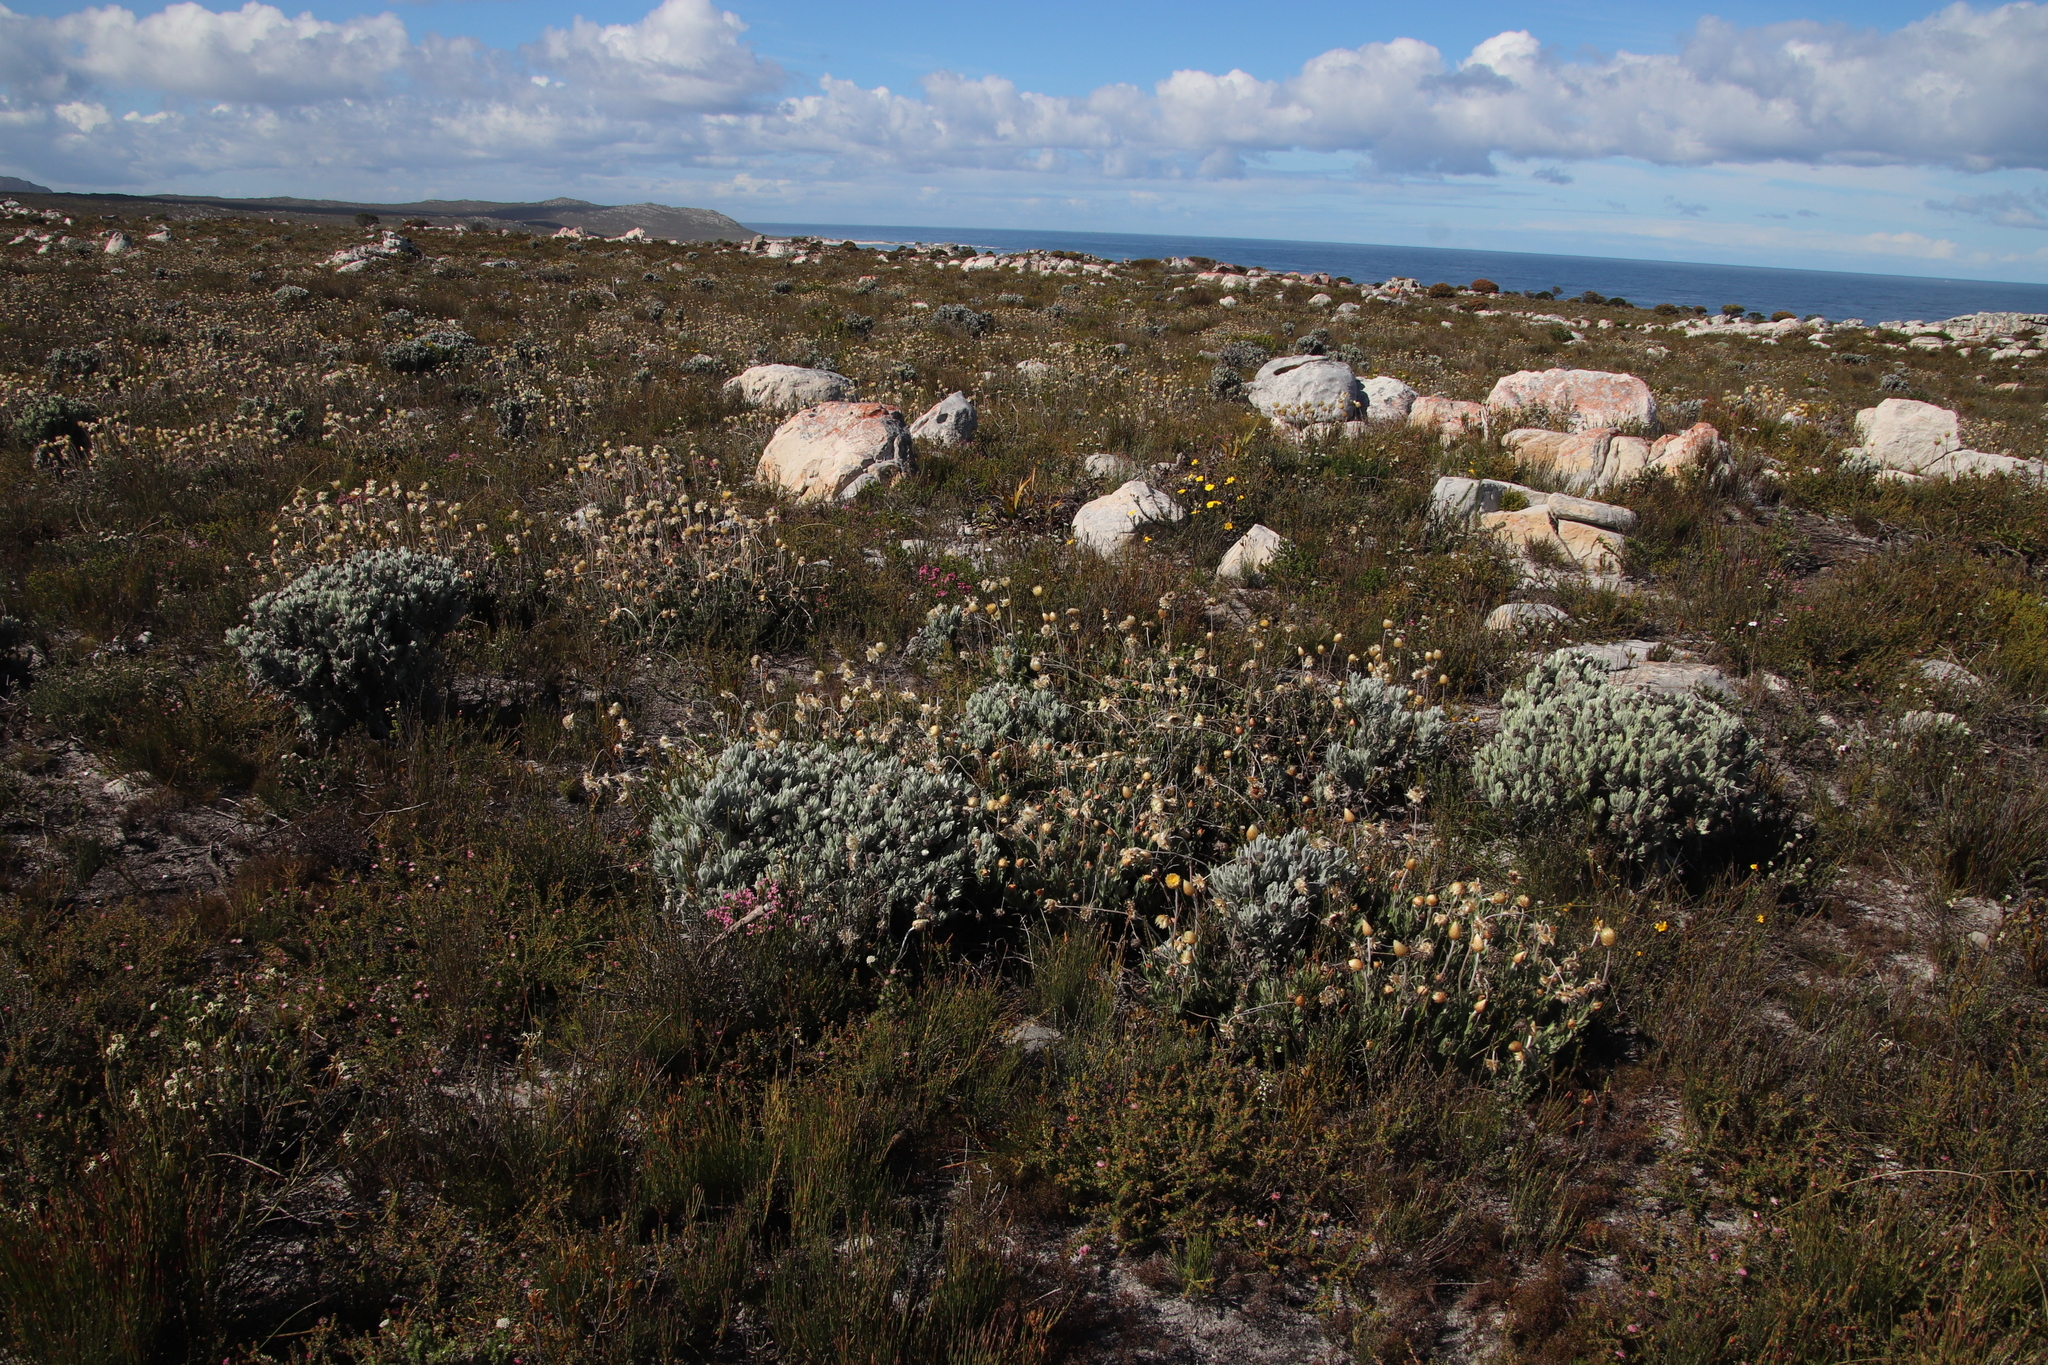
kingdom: Plantae
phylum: Tracheophyta
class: Magnoliopsida
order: Asterales
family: Asteraceae
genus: Syncarpha
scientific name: Syncarpha vestita
